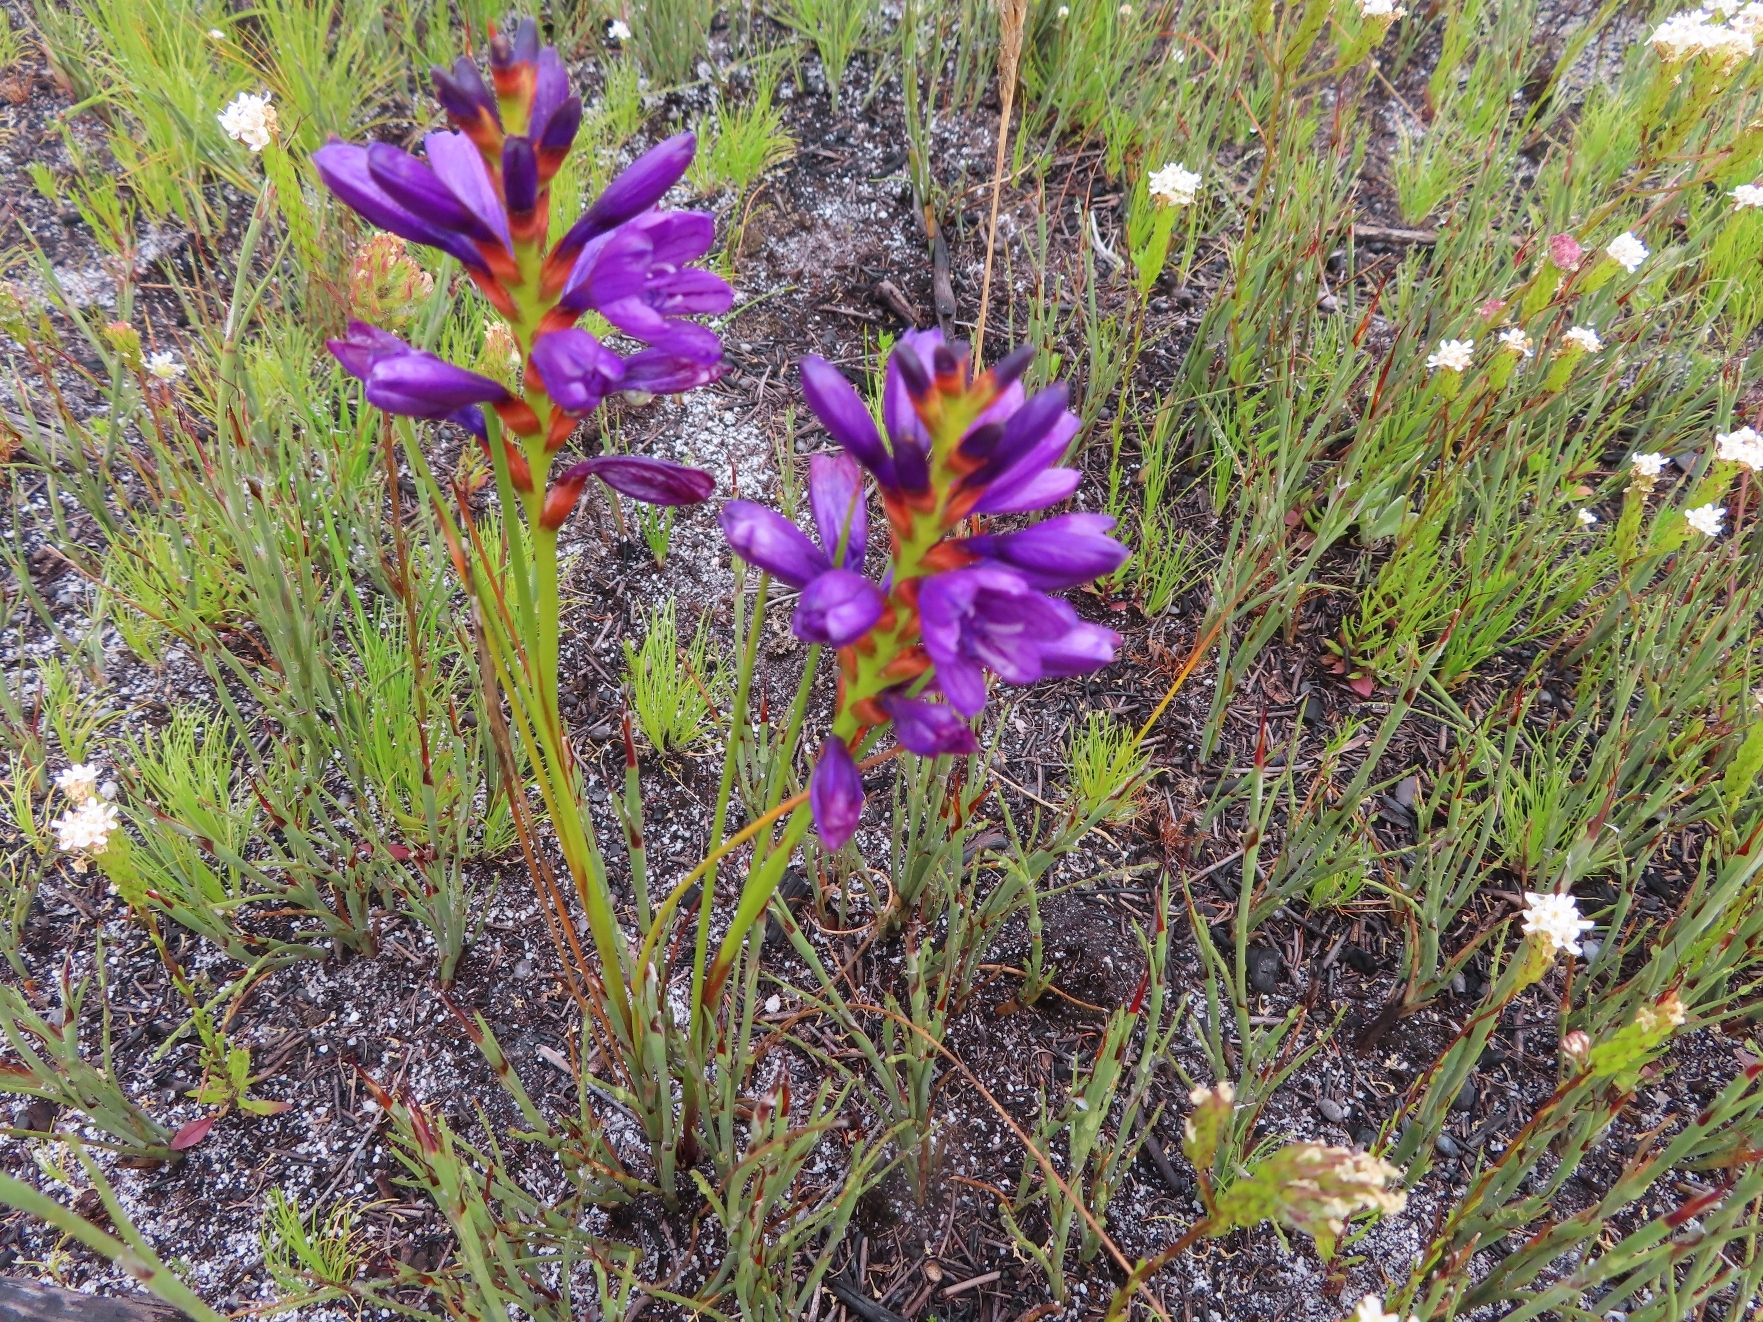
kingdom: Plantae
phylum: Tracheophyta
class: Liliopsida
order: Asparagales
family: Iridaceae
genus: Thereianthus
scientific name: Thereianthus bracteolatus
